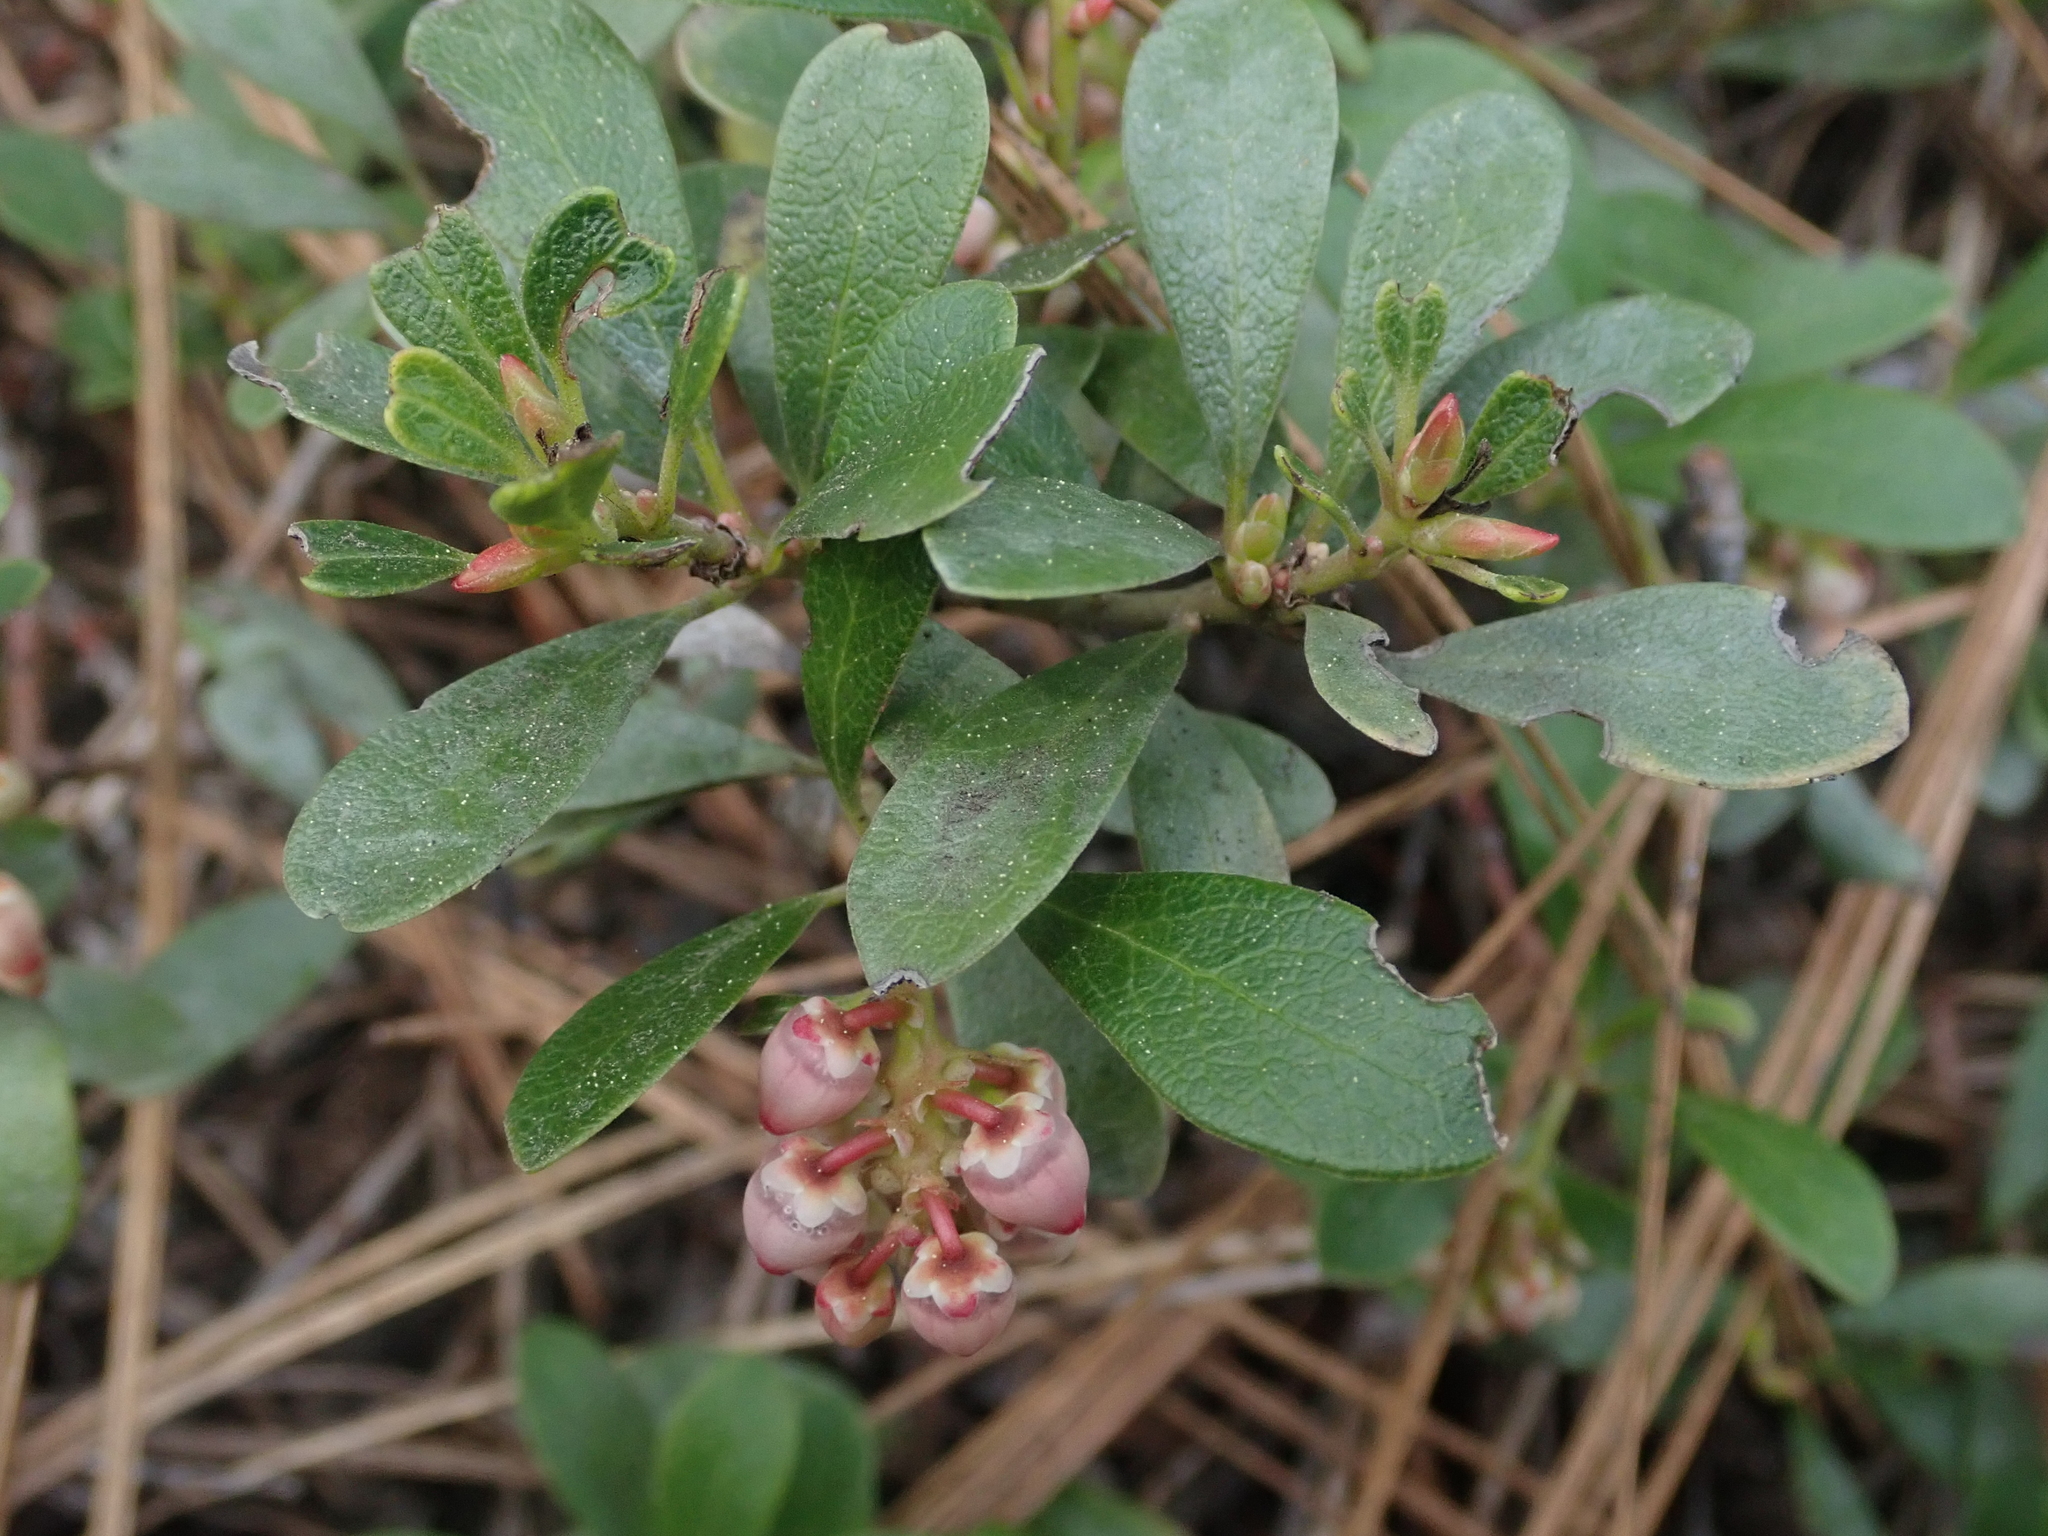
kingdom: Plantae
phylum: Tracheophyta
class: Magnoliopsida
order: Ericales
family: Ericaceae
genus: Arctostaphylos
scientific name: Arctostaphylos uva-ursi
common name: Bearberry
